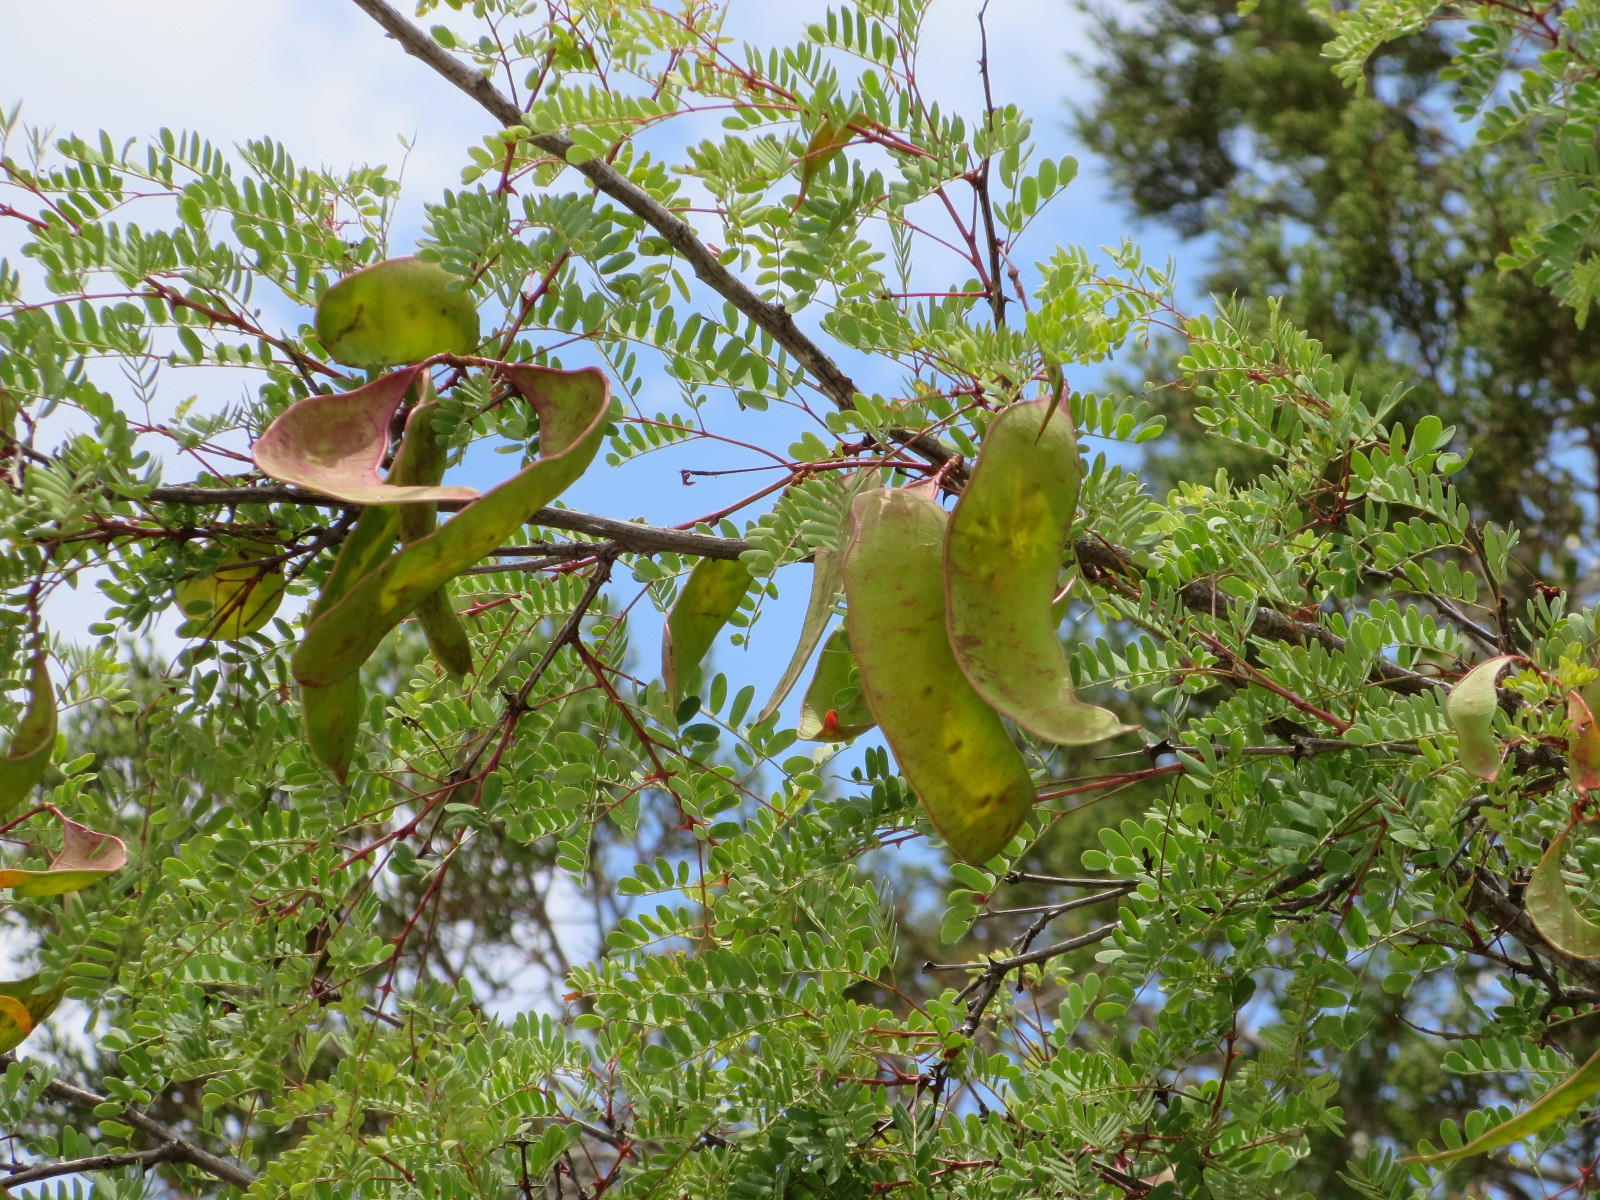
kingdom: Plantae
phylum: Tracheophyta
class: Magnoliopsida
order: Fabales
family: Fabaceae
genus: Senegalia
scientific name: Senegalia roemeriana
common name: Roemer's acacia
